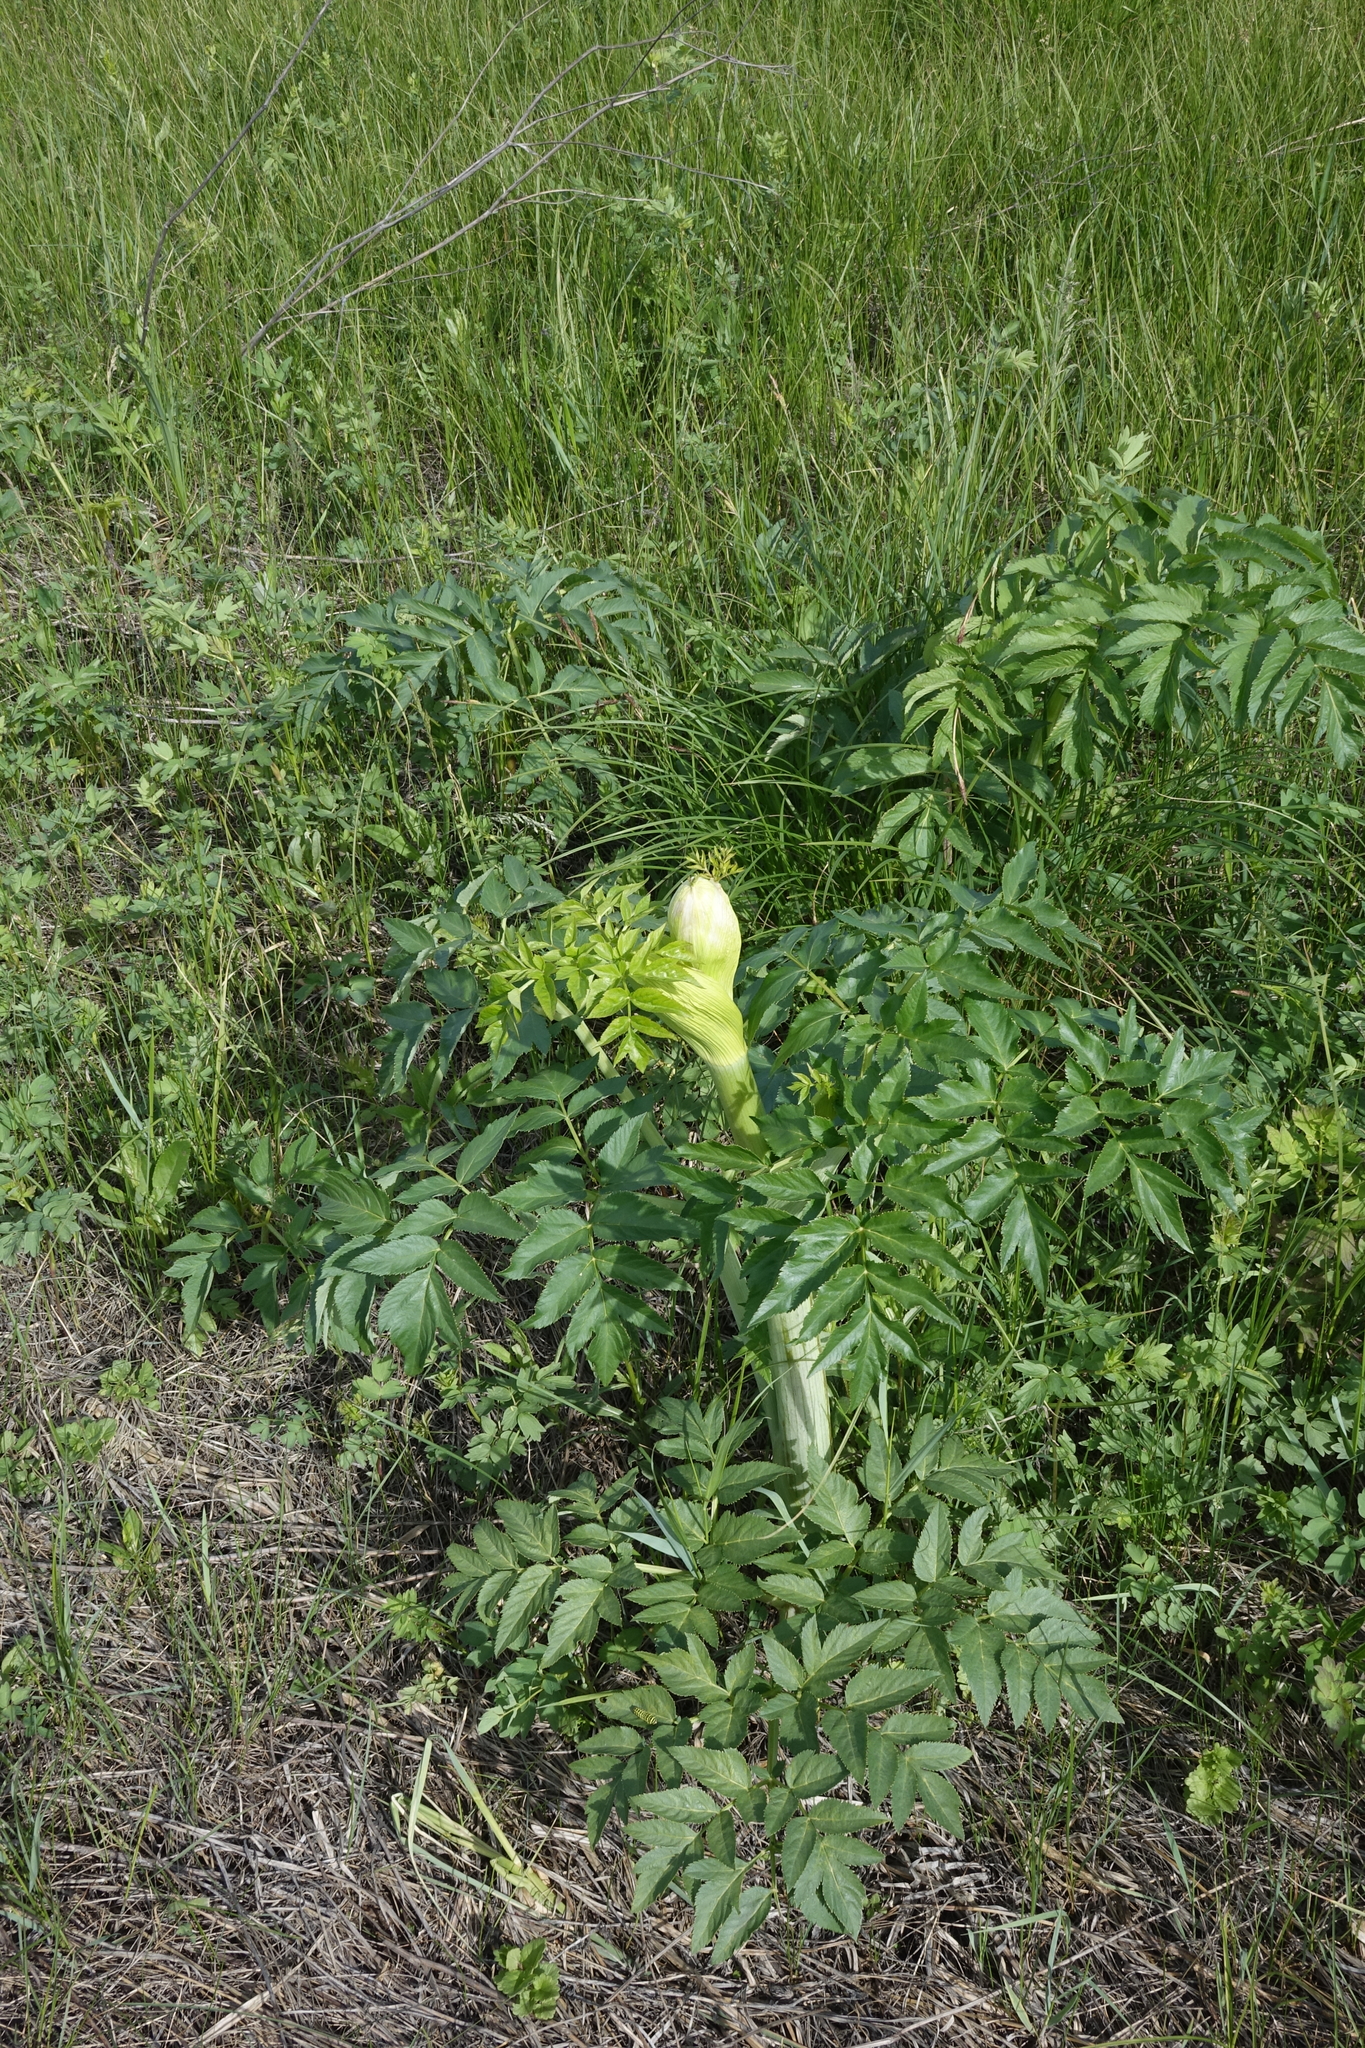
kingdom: Plantae
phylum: Tracheophyta
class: Magnoliopsida
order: Apiales
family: Apiaceae
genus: Angelica
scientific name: Angelica decurrens
